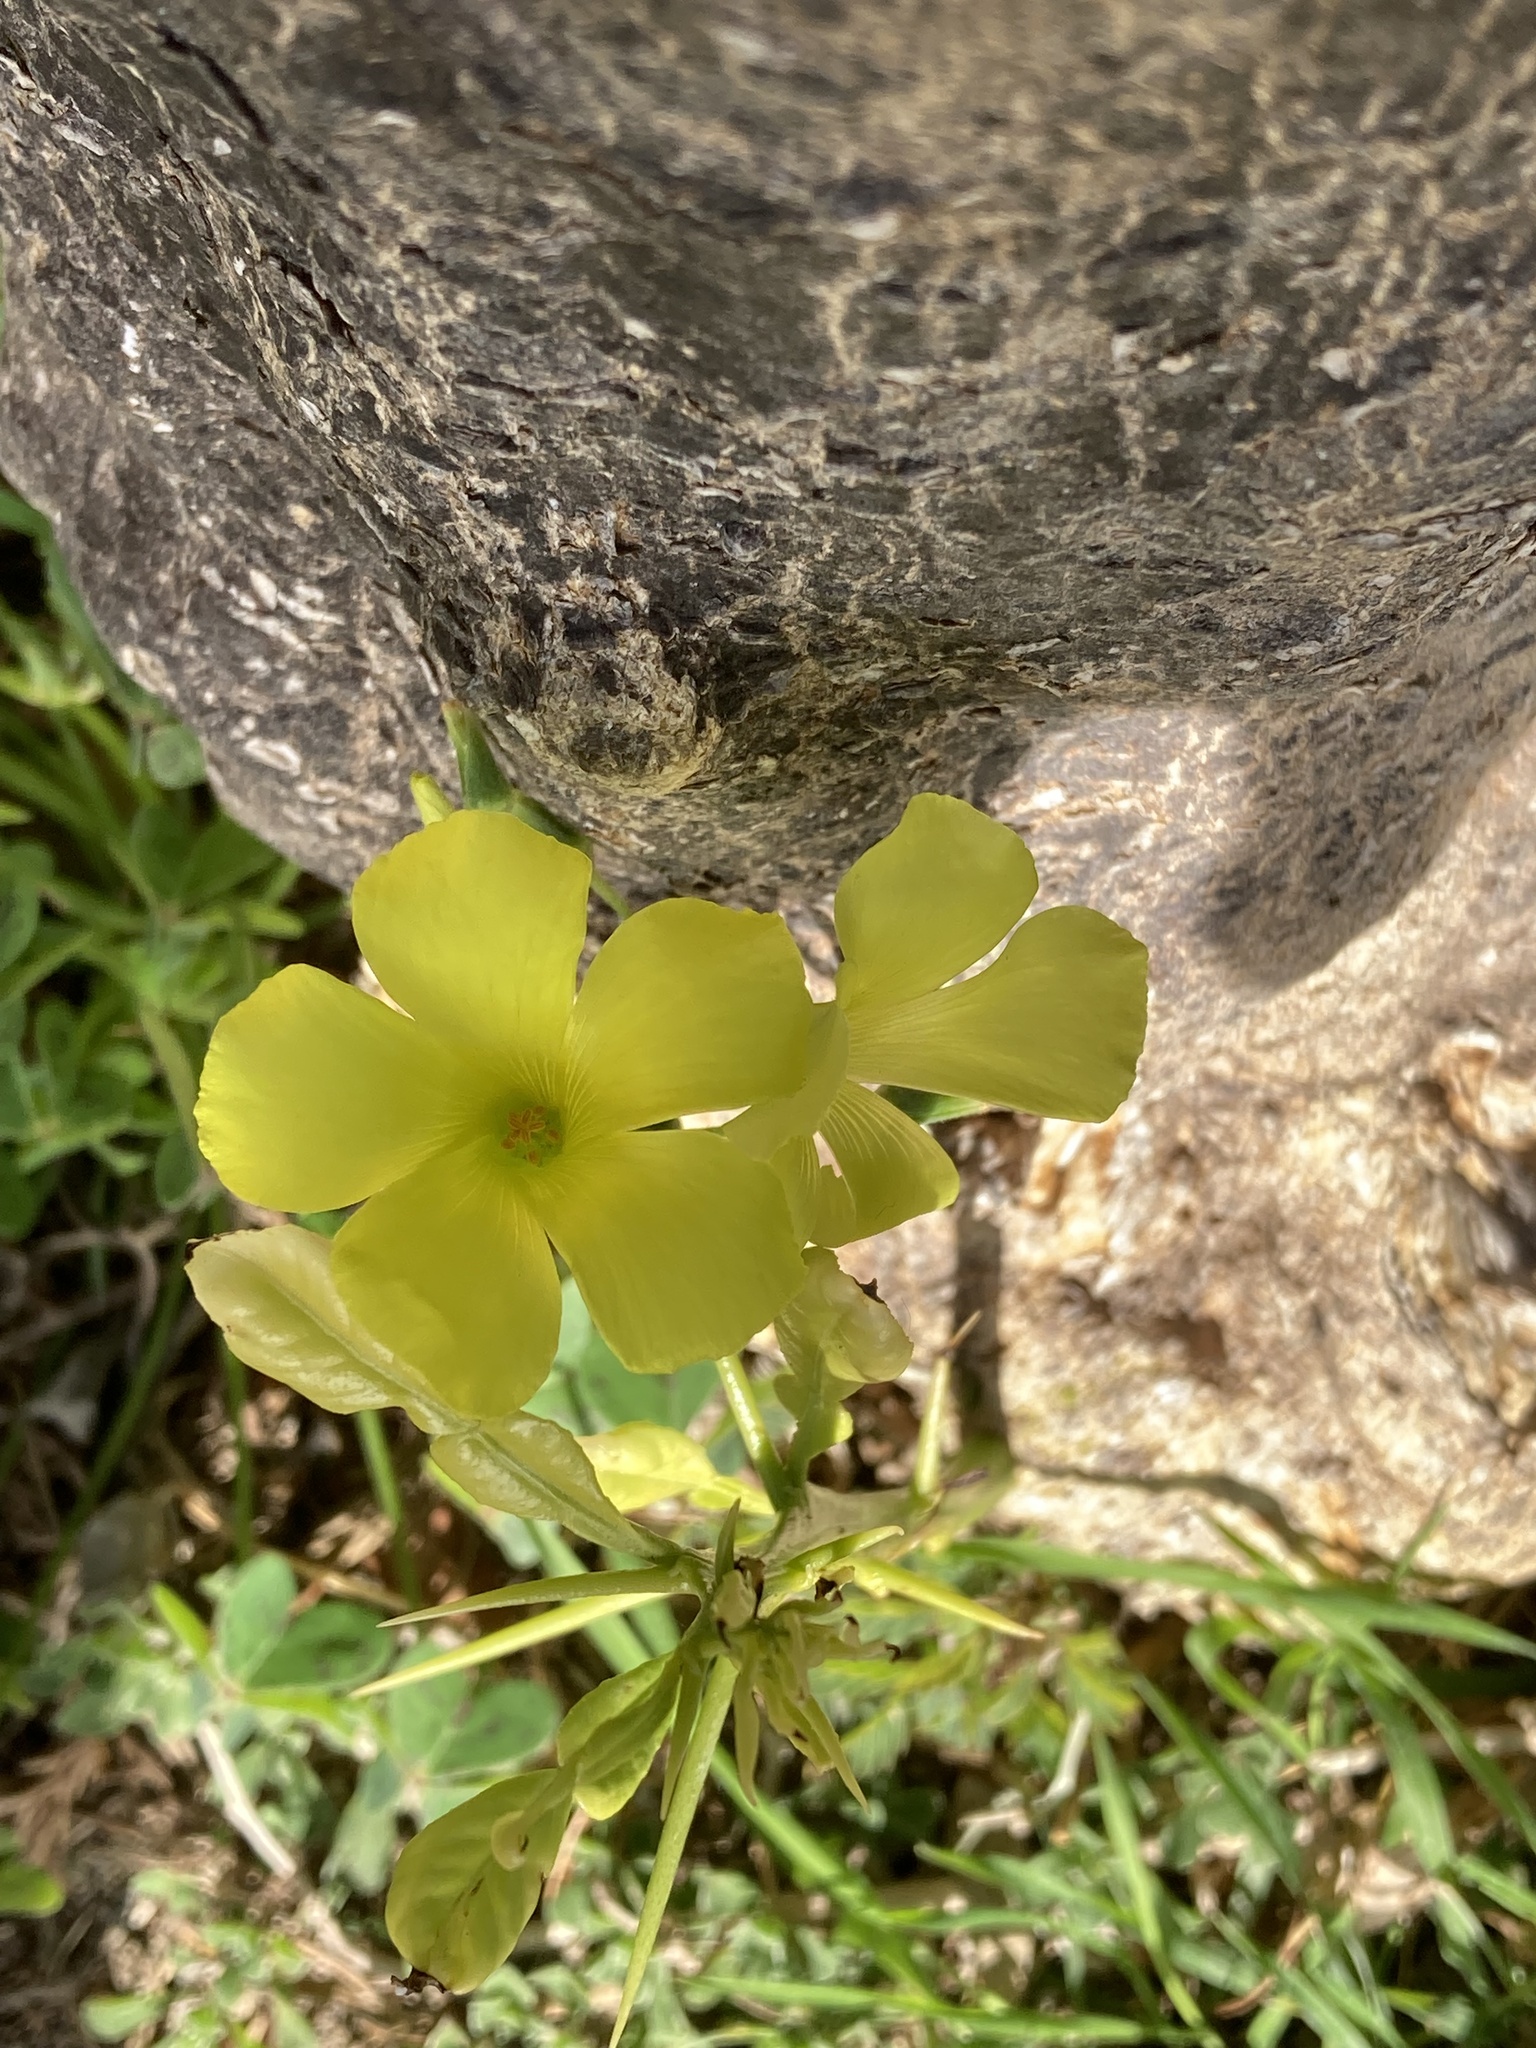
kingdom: Plantae
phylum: Tracheophyta
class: Magnoliopsida
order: Oxalidales
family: Oxalidaceae
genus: Oxalis
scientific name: Oxalis pes-caprae
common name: Bermuda-buttercup
